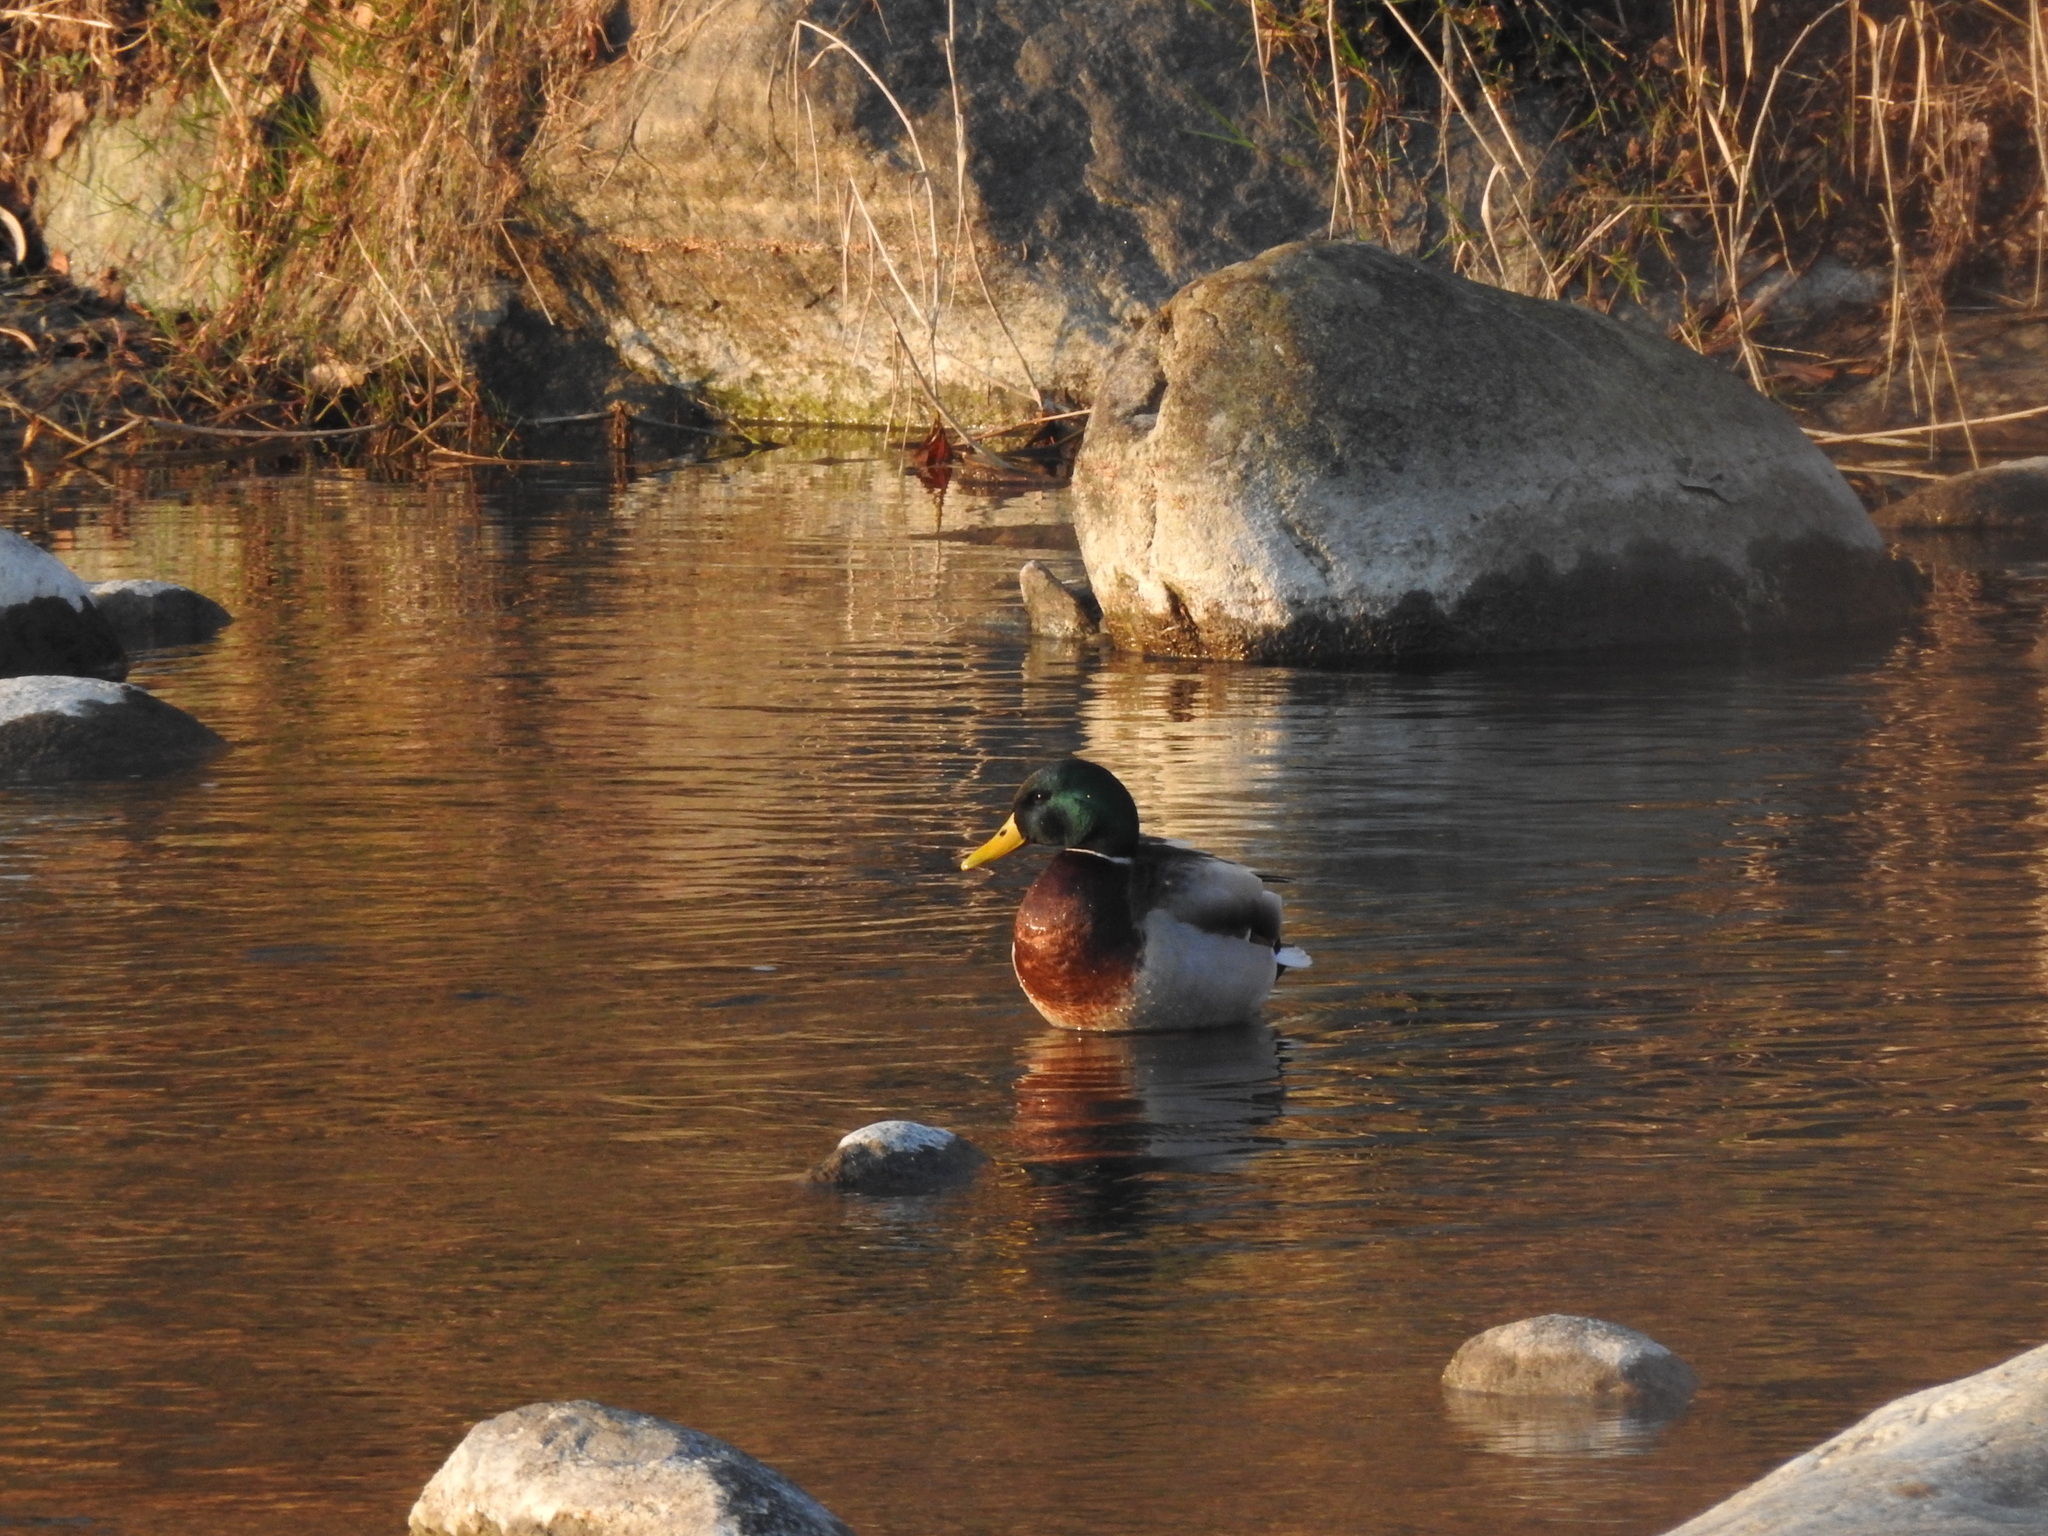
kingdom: Animalia
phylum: Chordata
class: Aves
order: Anseriformes
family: Anatidae
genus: Anas
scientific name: Anas platyrhynchos
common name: Mallard
